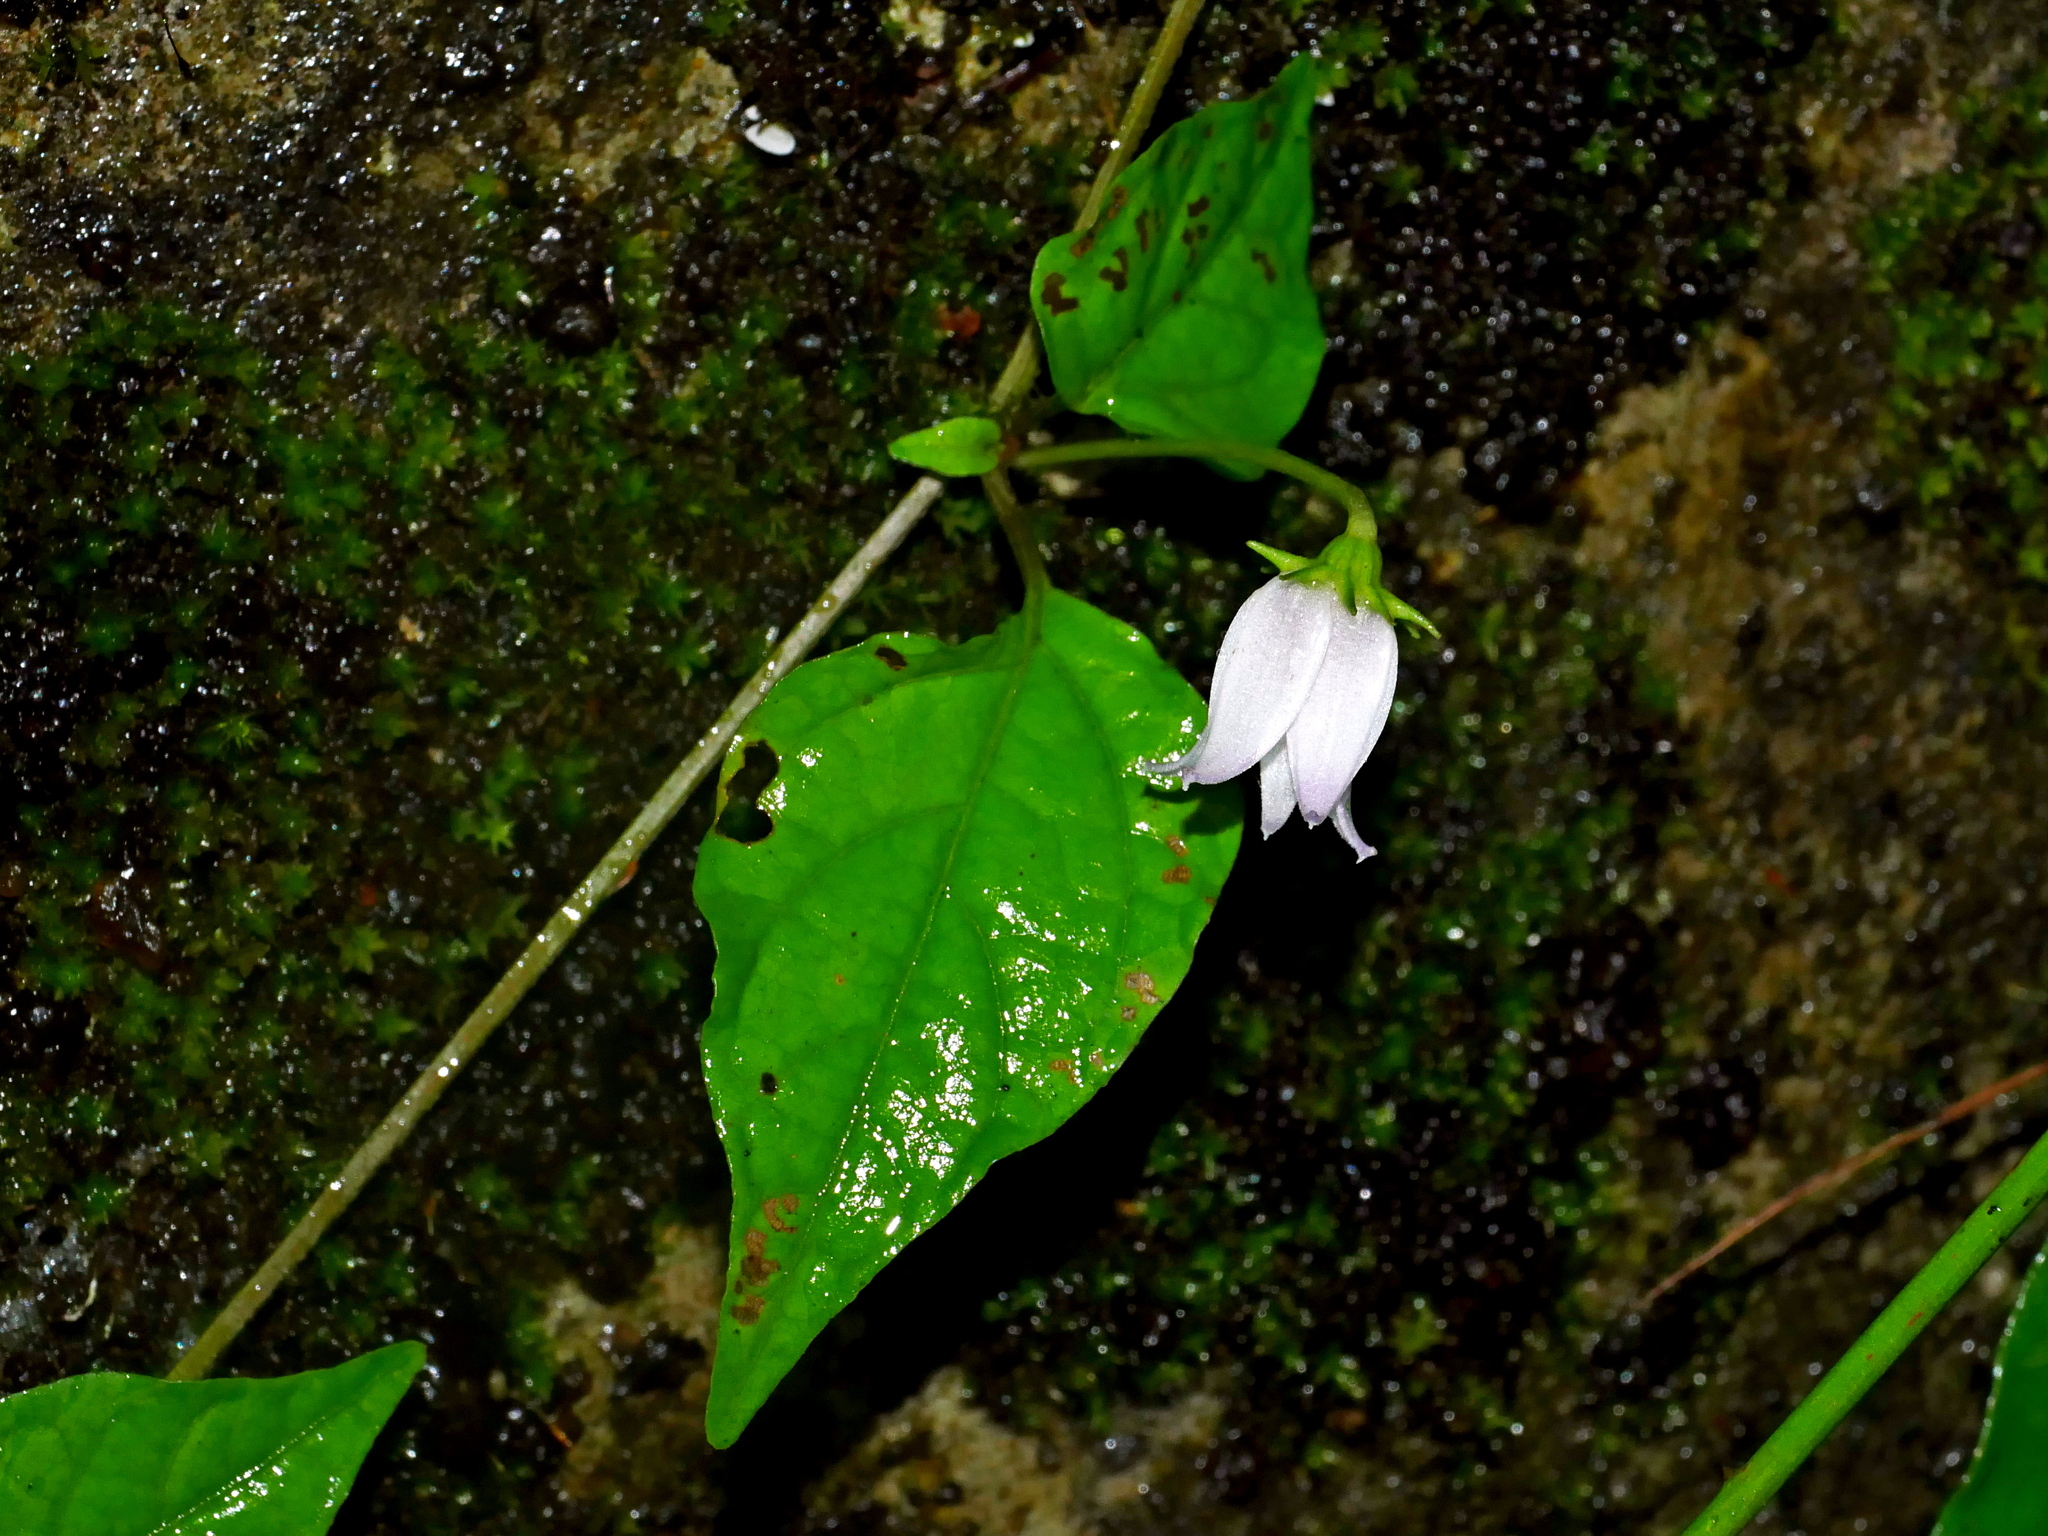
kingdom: Plantae
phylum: Tracheophyta
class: Magnoliopsida
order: Solanales
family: Solanaceae
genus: Lycianthes
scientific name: Lycianthes lysimachioides
